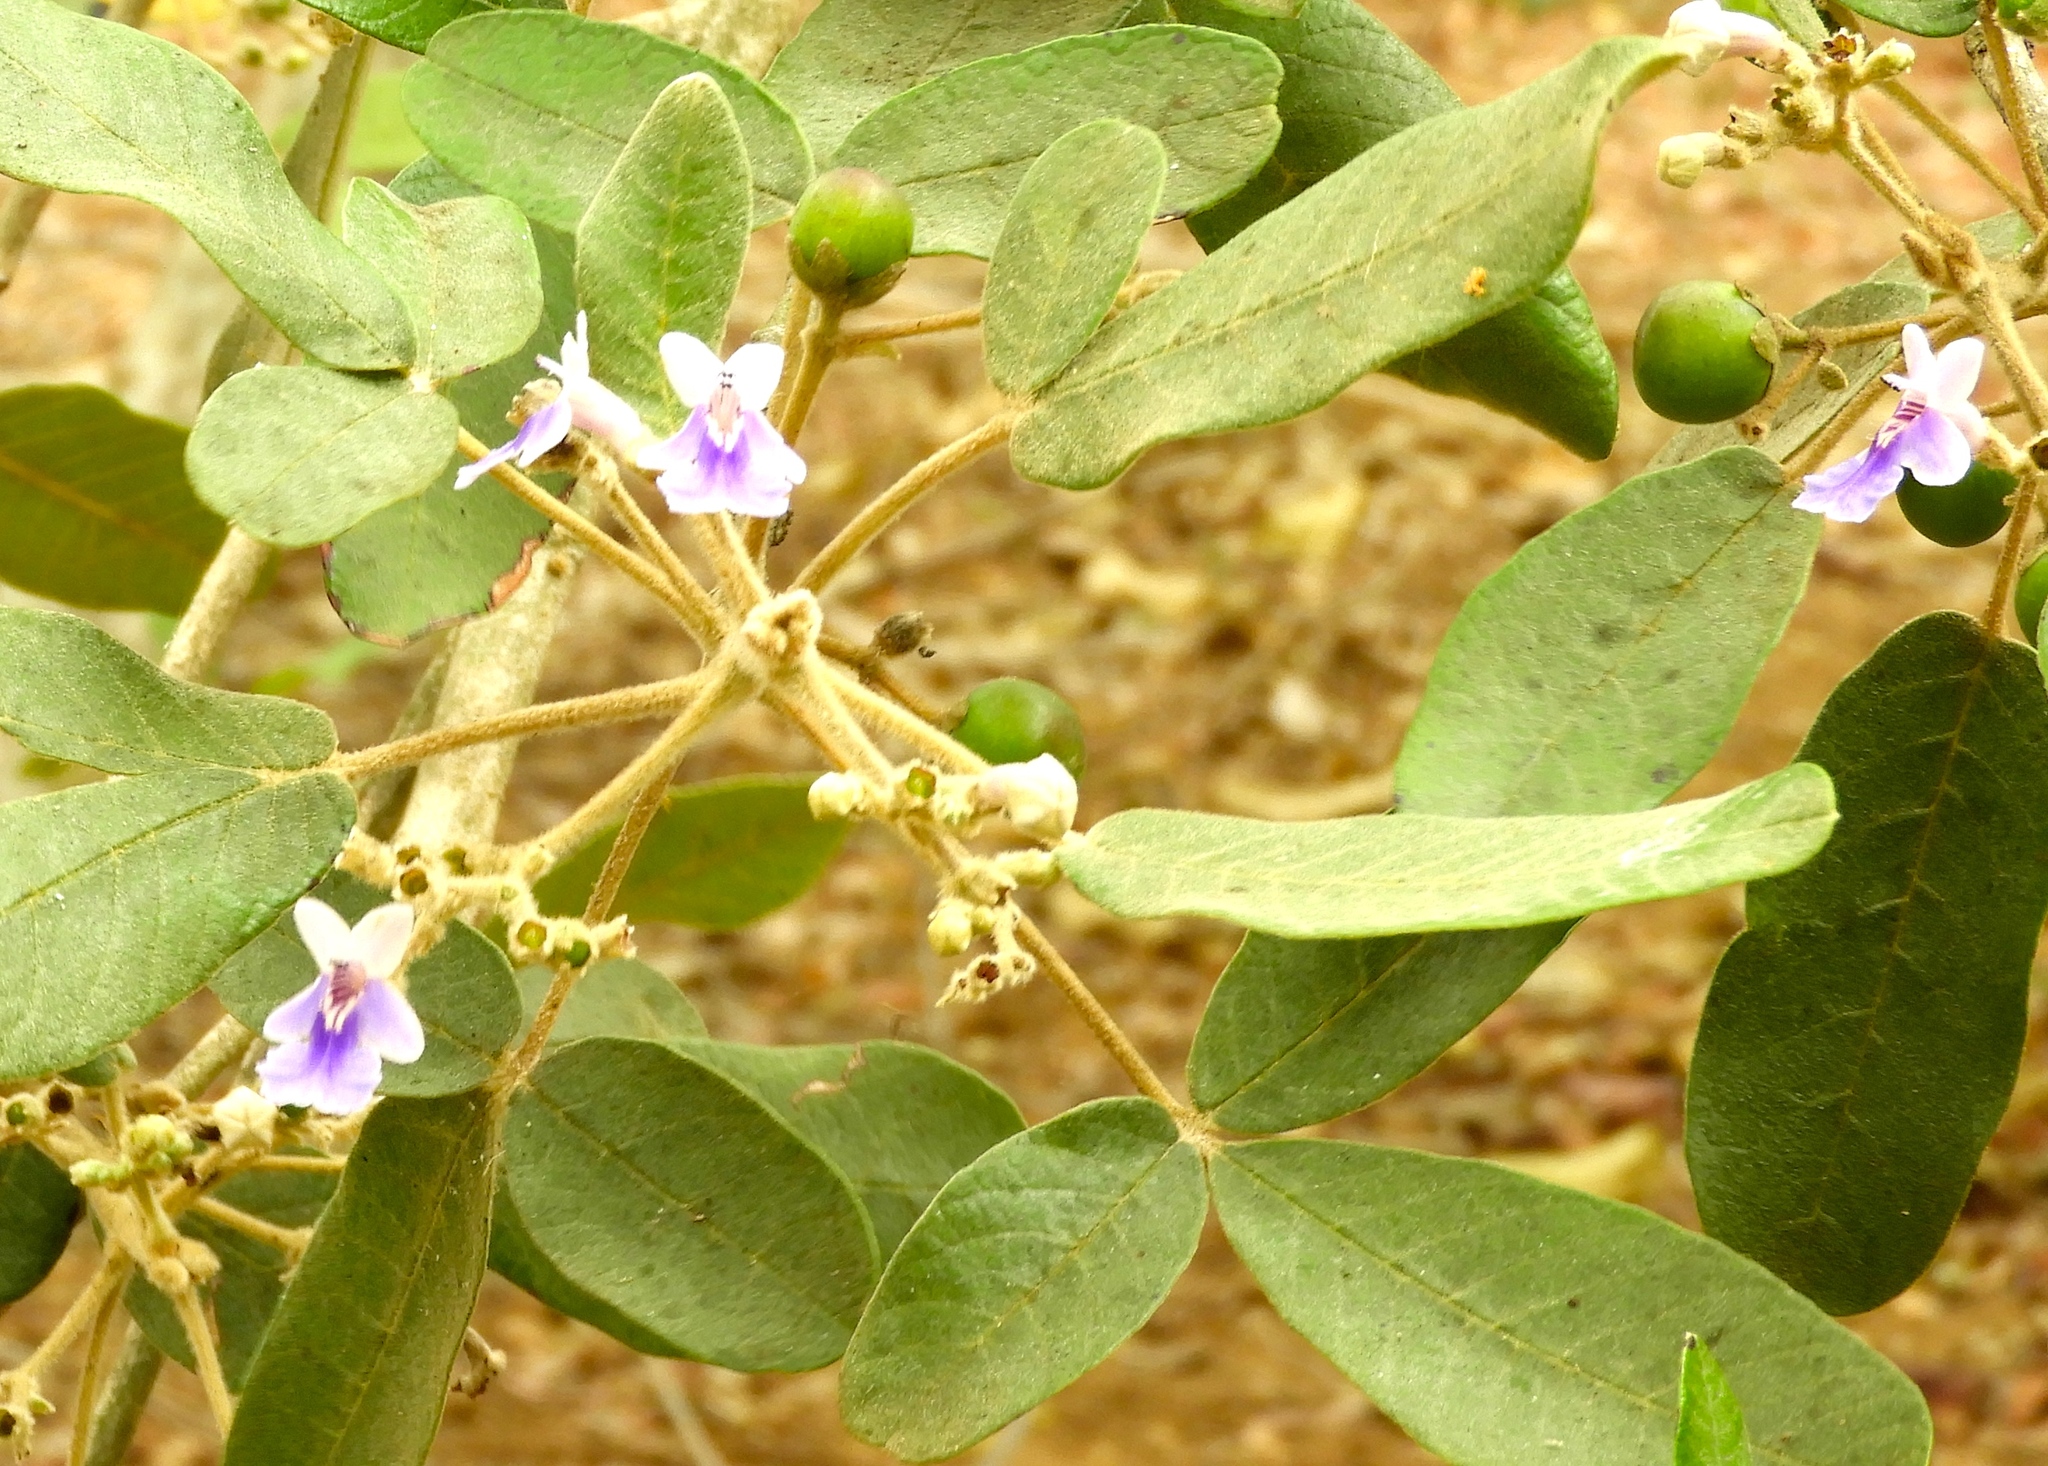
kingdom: Plantae
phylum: Tracheophyta
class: Magnoliopsida
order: Lamiales
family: Lamiaceae
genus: Vitex
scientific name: Vitex mollis
